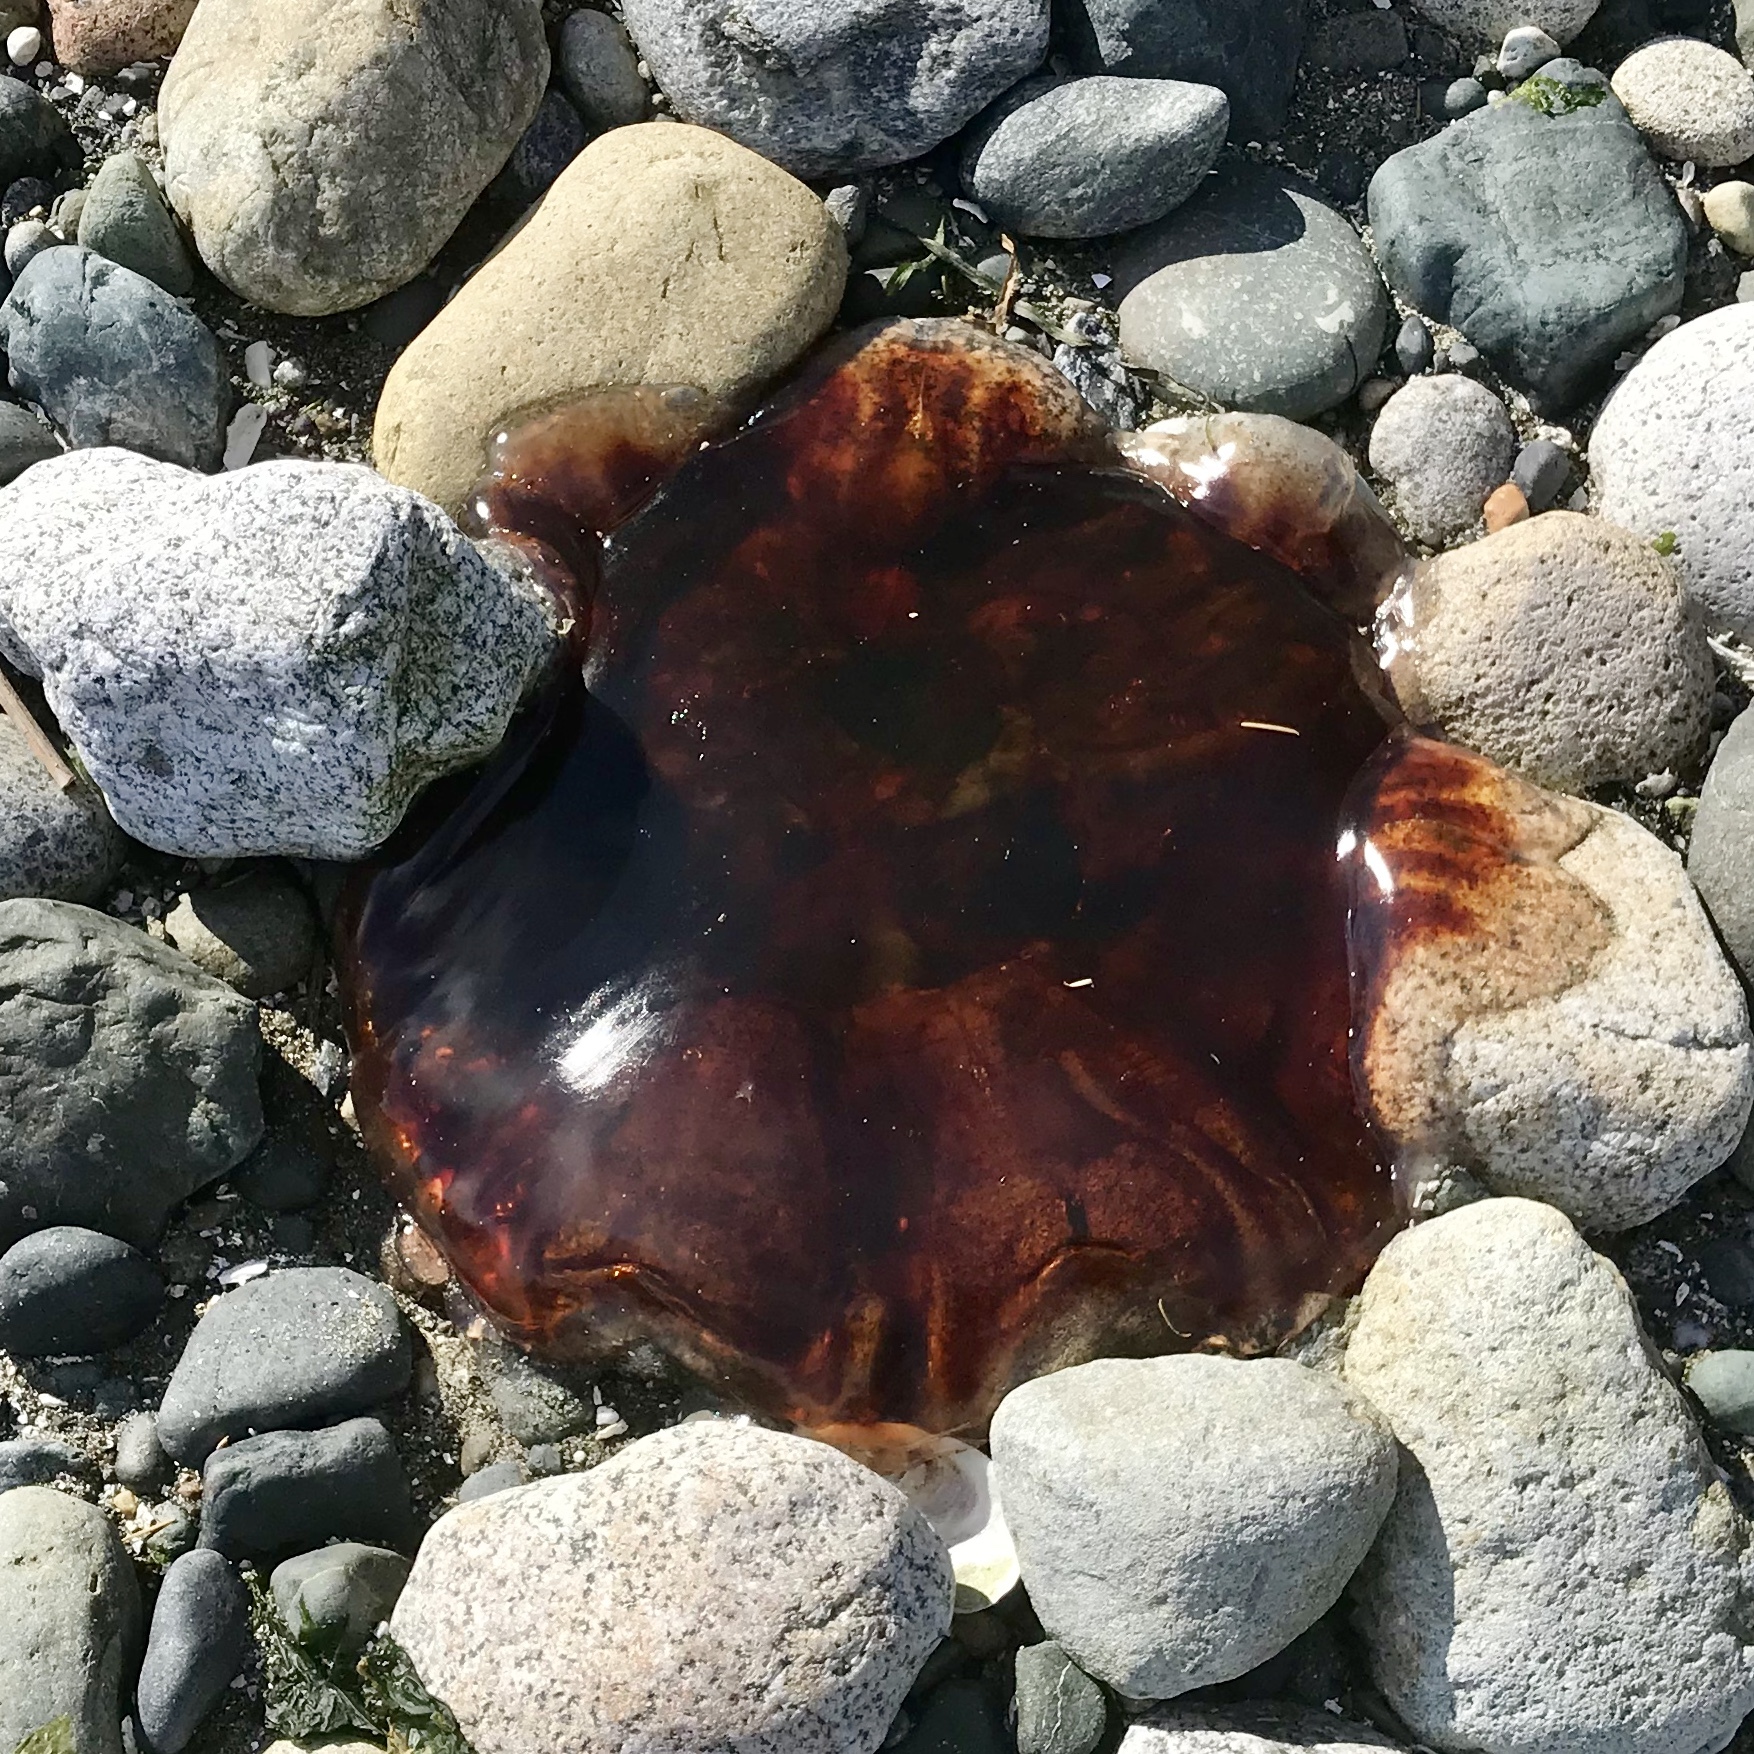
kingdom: Animalia
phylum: Cnidaria
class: Scyphozoa
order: Semaeostomeae
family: Cyaneidae
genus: Cyanea
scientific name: Cyanea ferruginea
